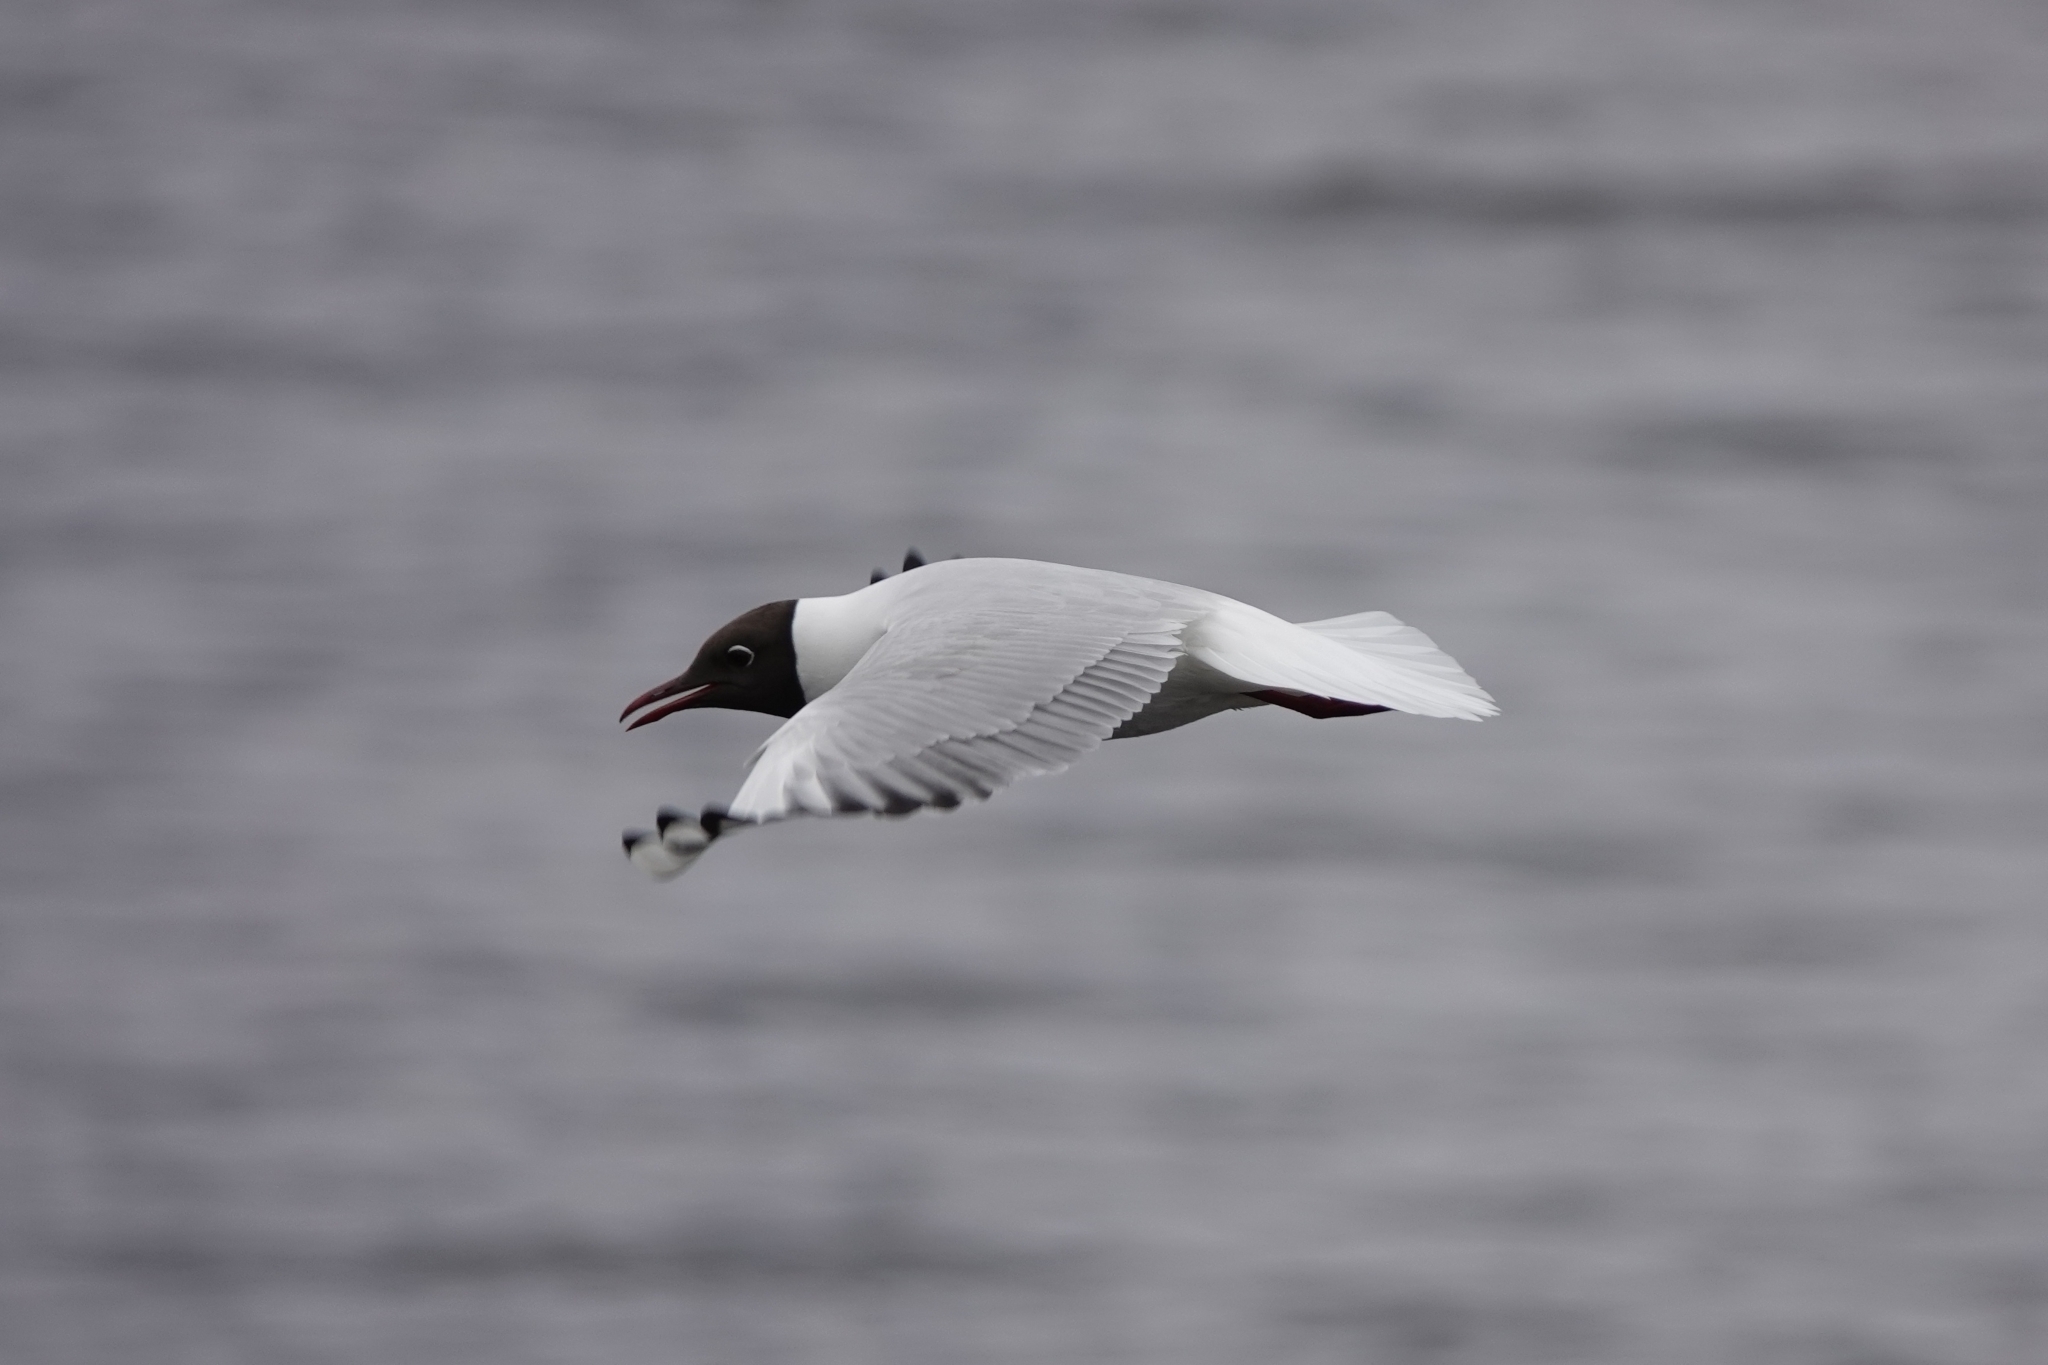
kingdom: Animalia
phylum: Chordata
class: Aves
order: Charadriiformes
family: Laridae
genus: Chroicocephalus
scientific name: Chroicocephalus ridibundus
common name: Black-headed gull
